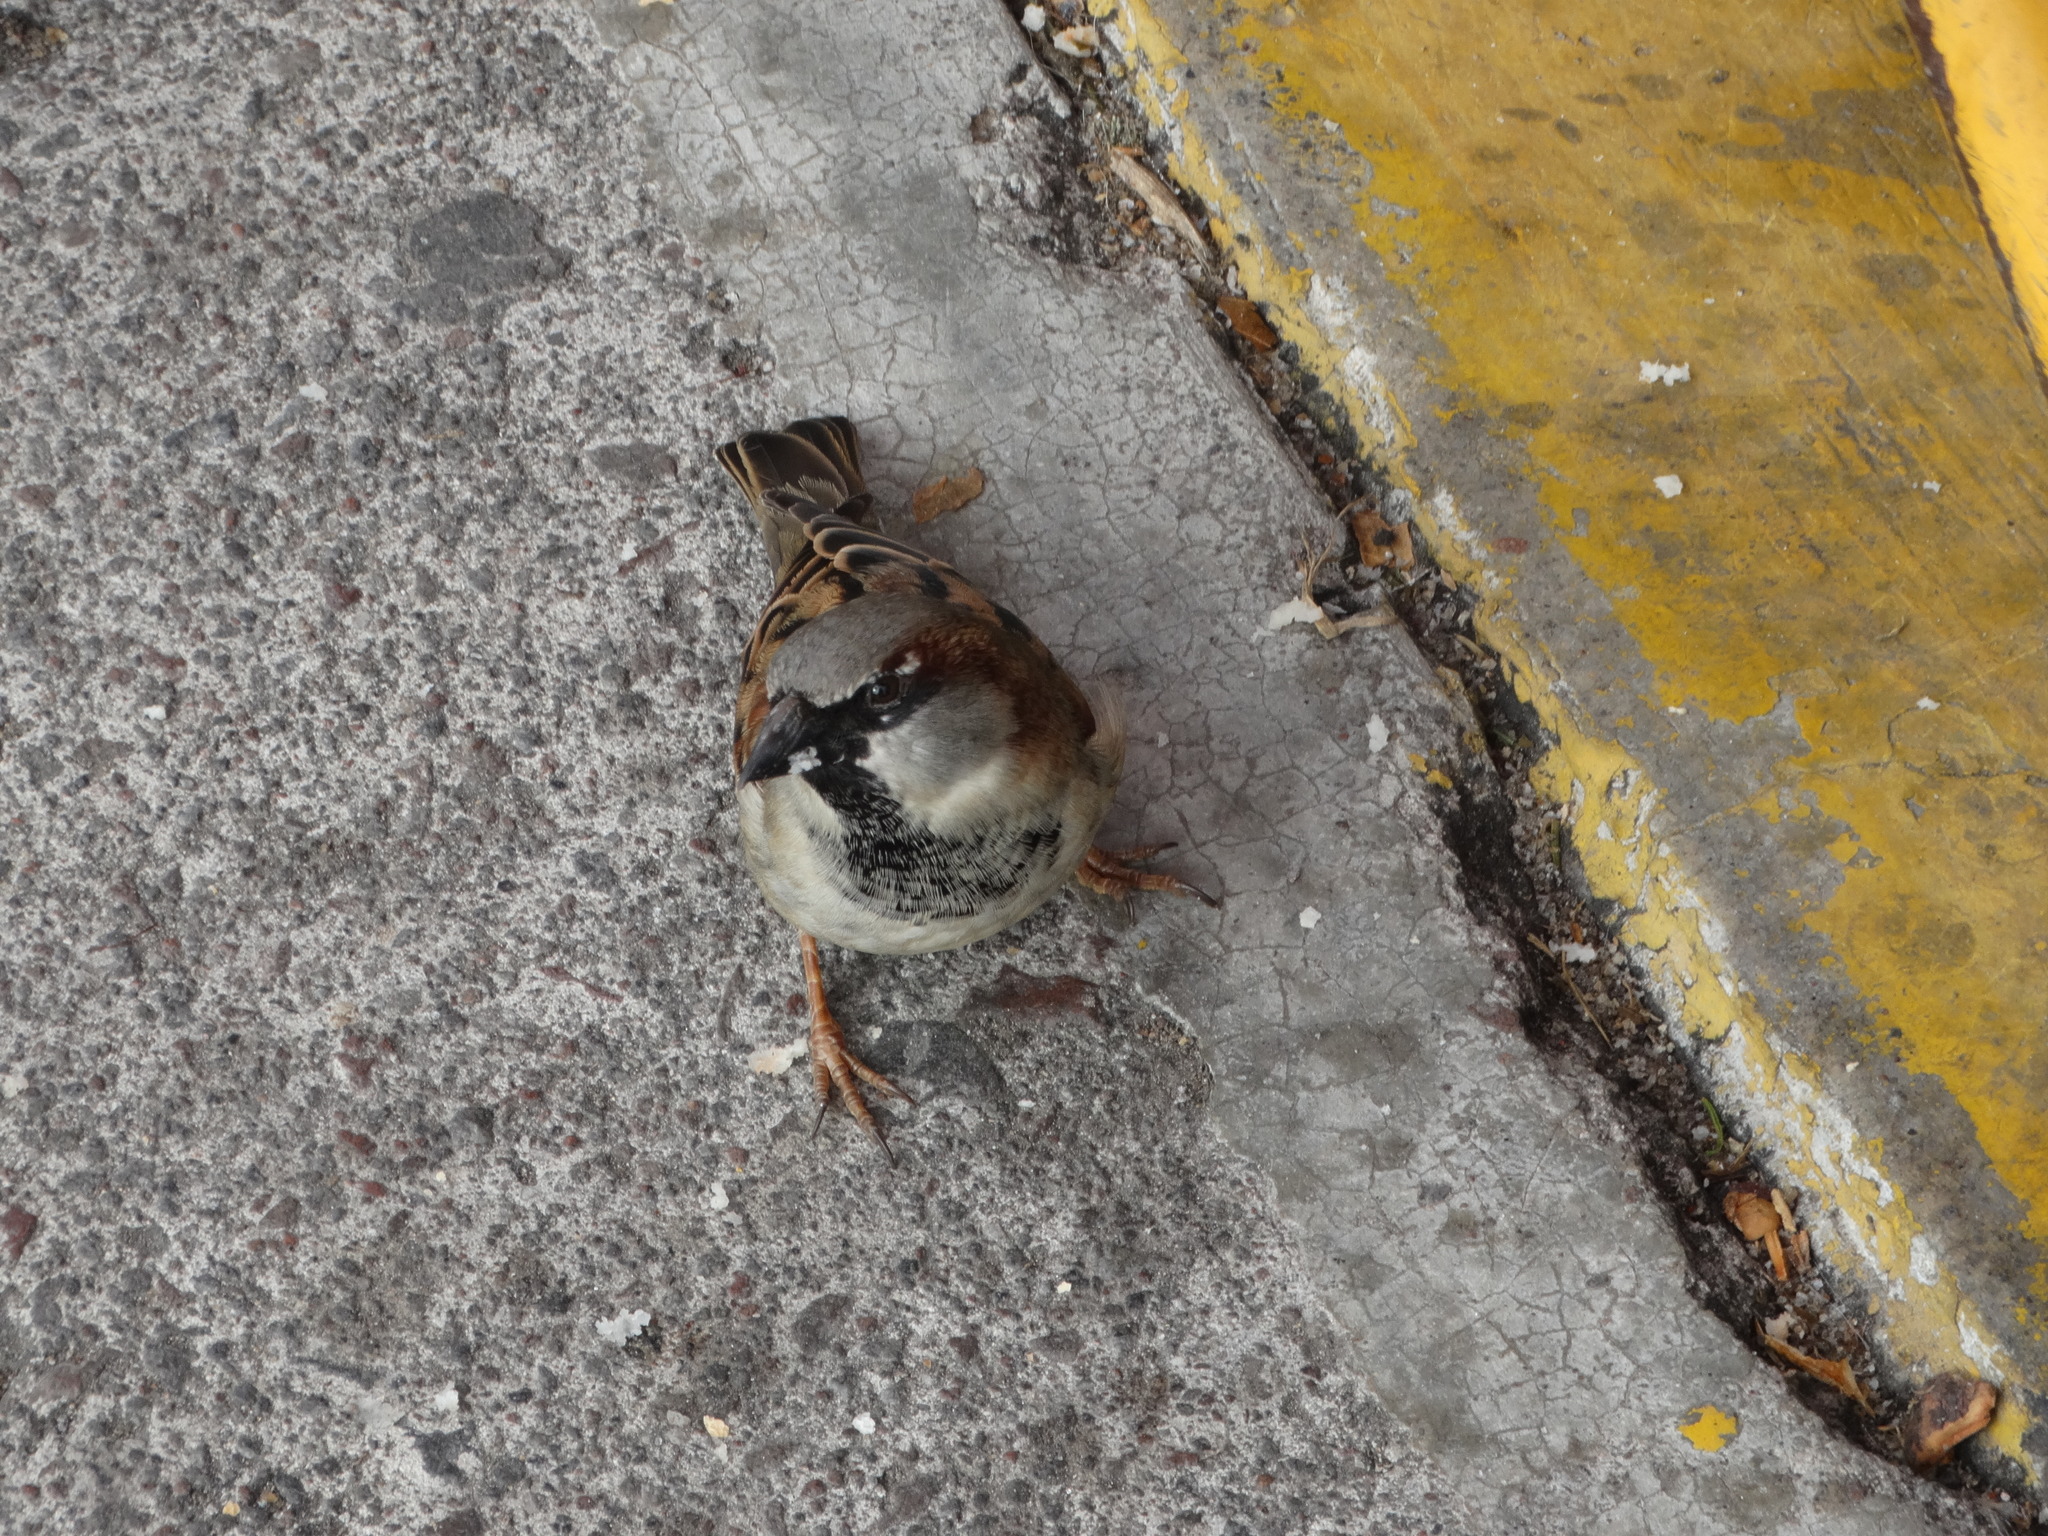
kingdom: Animalia
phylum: Chordata
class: Aves
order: Passeriformes
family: Passeridae
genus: Passer
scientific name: Passer domesticus
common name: House sparrow
